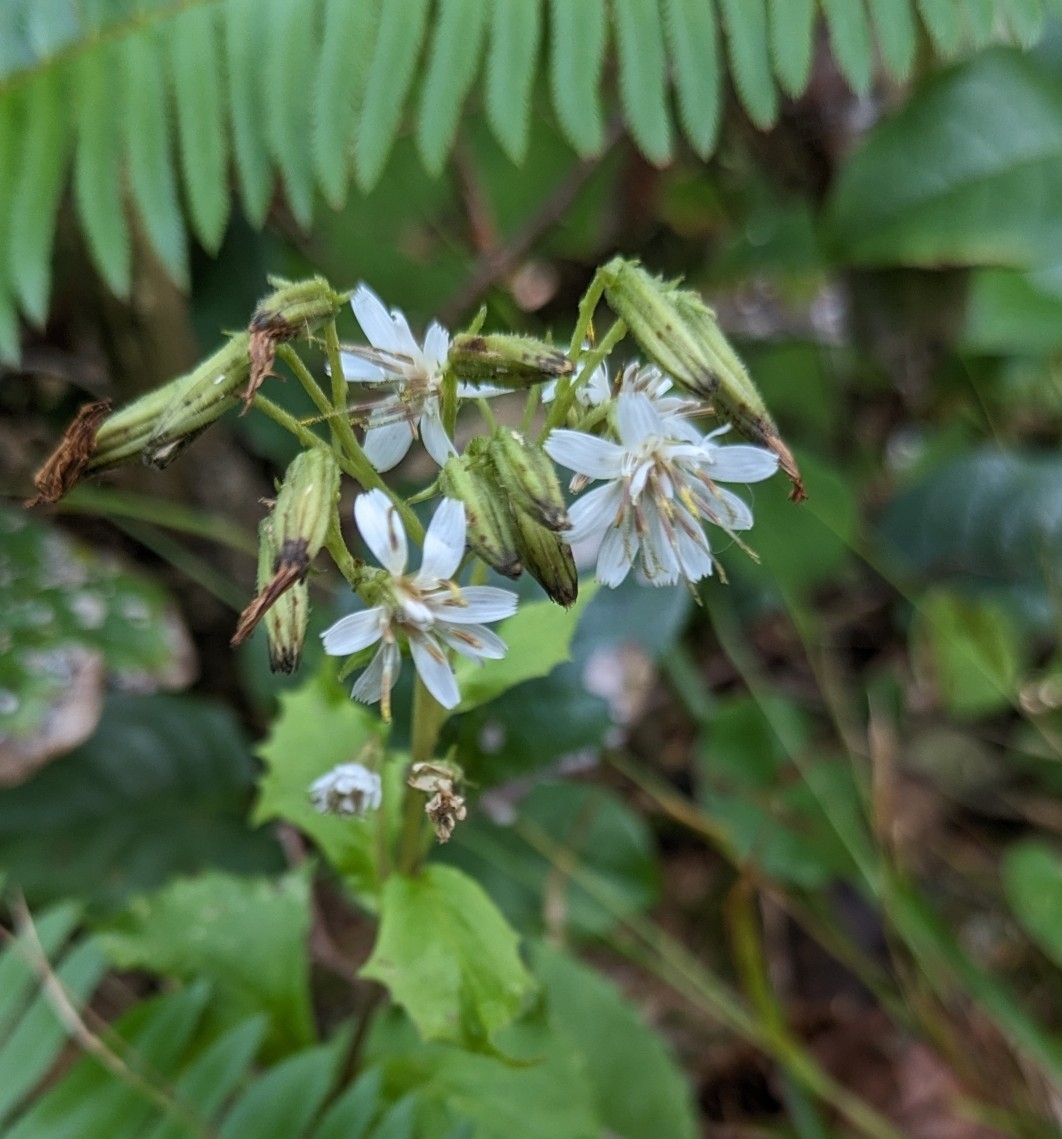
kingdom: Plantae
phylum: Tracheophyta
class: Magnoliopsida
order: Asterales
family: Asteraceae
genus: Nabalus
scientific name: Nabalus hastatus
